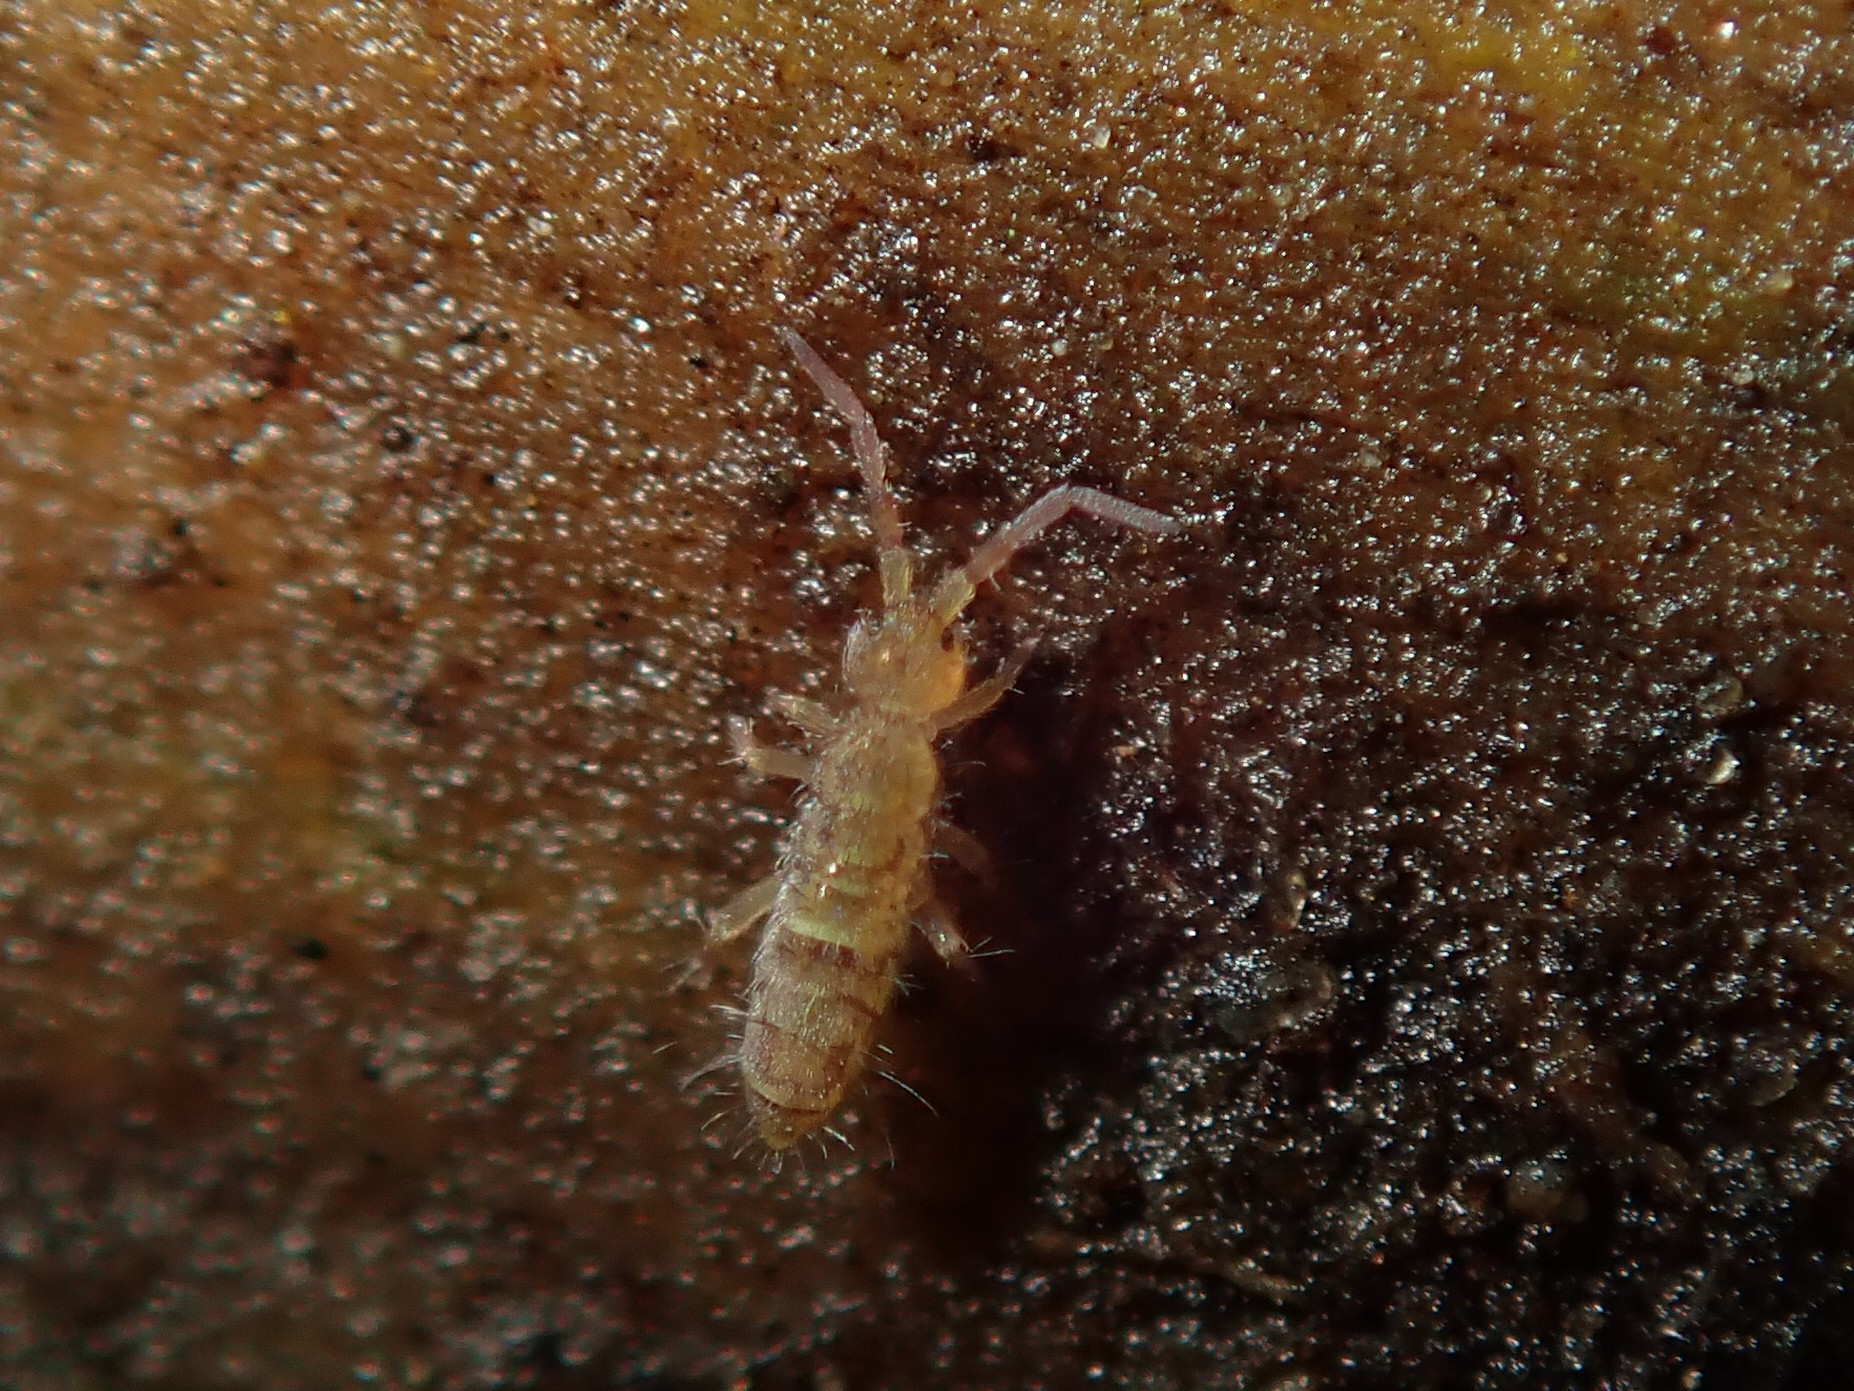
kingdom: Animalia
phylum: Arthropoda
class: Collembola
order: Entomobryomorpha
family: Orchesellidae
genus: Orchesella
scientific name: Orchesella cincta
